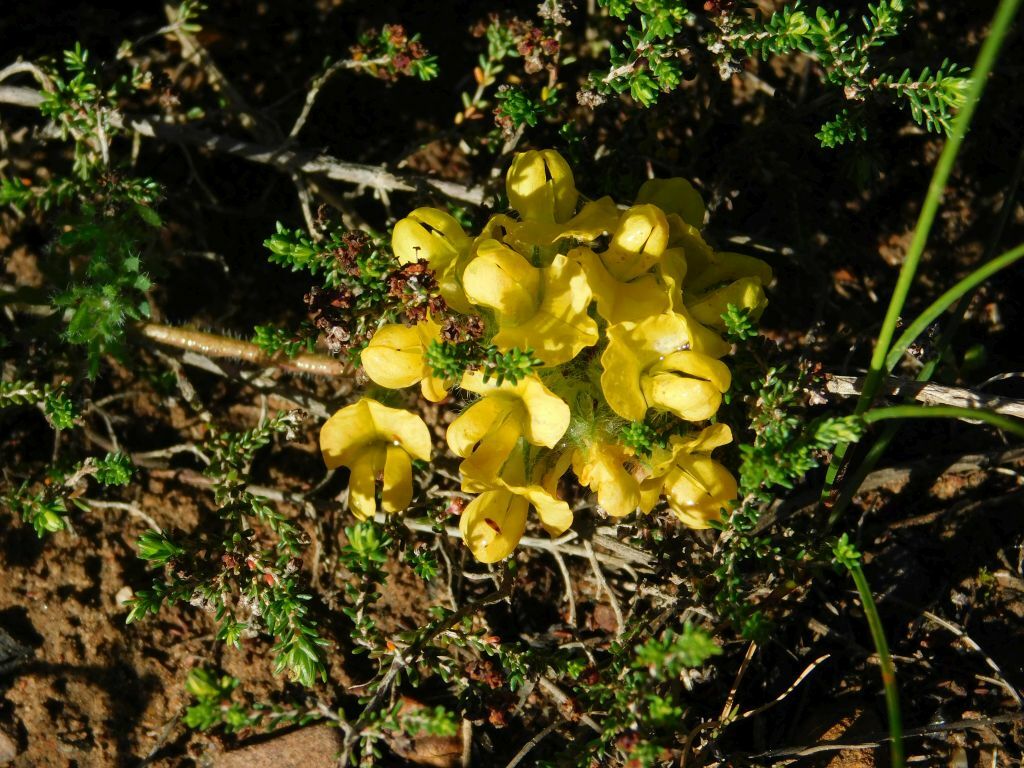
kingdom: Plantae
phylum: Tracheophyta
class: Magnoliopsida
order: Fabales
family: Fabaceae
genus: Lotononis
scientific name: Lotononis involucrata
